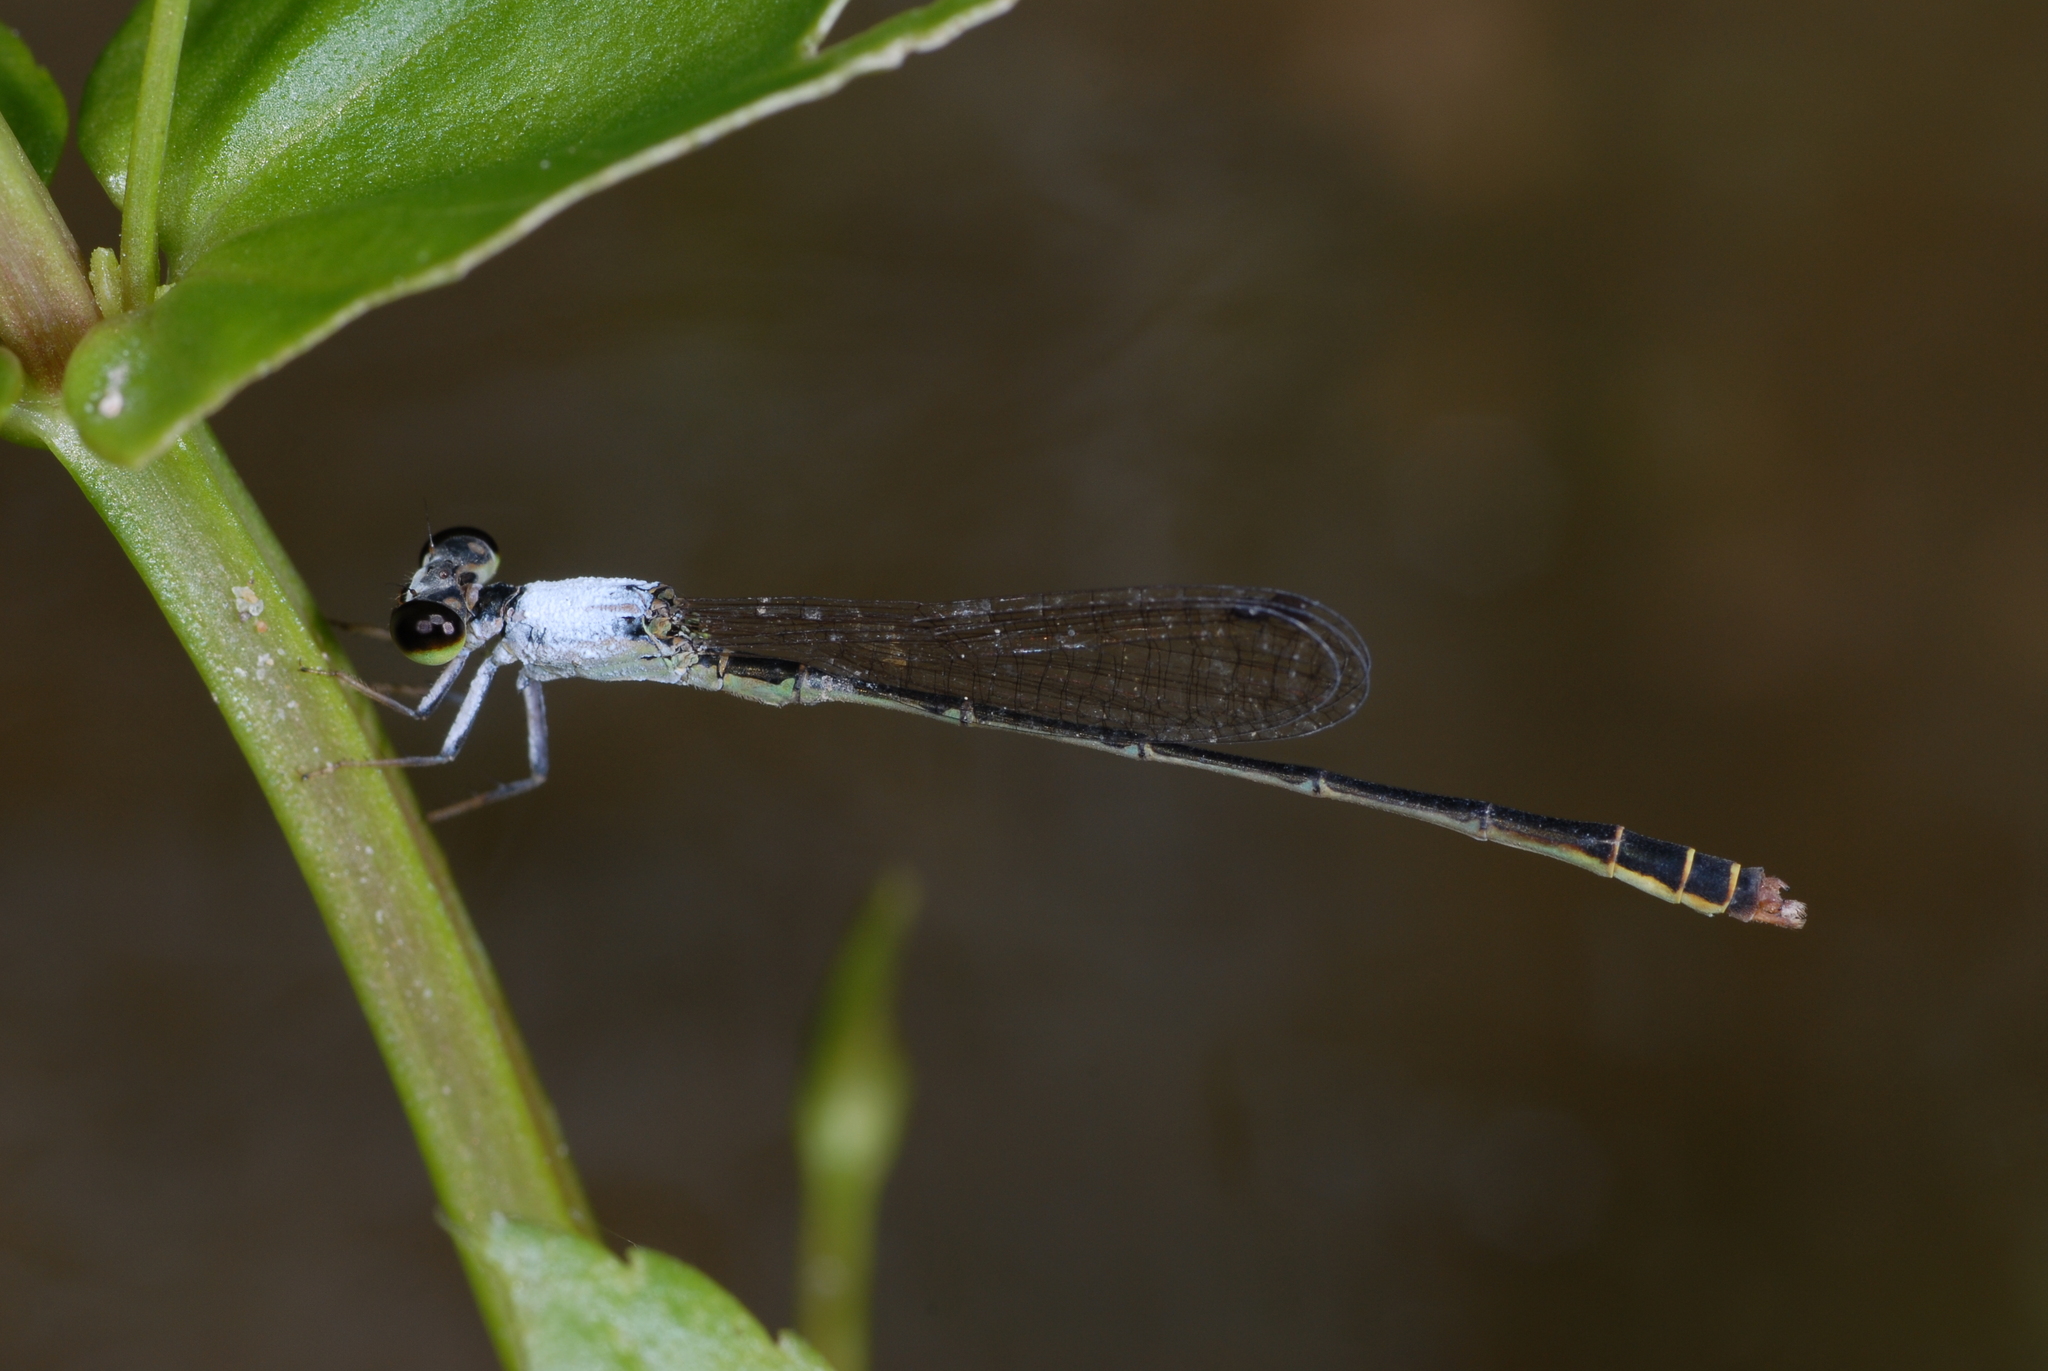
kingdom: Animalia
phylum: Arthropoda
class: Insecta
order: Odonata
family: Coenagrionidae
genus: Agriocnemis
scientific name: Agriocnemis femina
